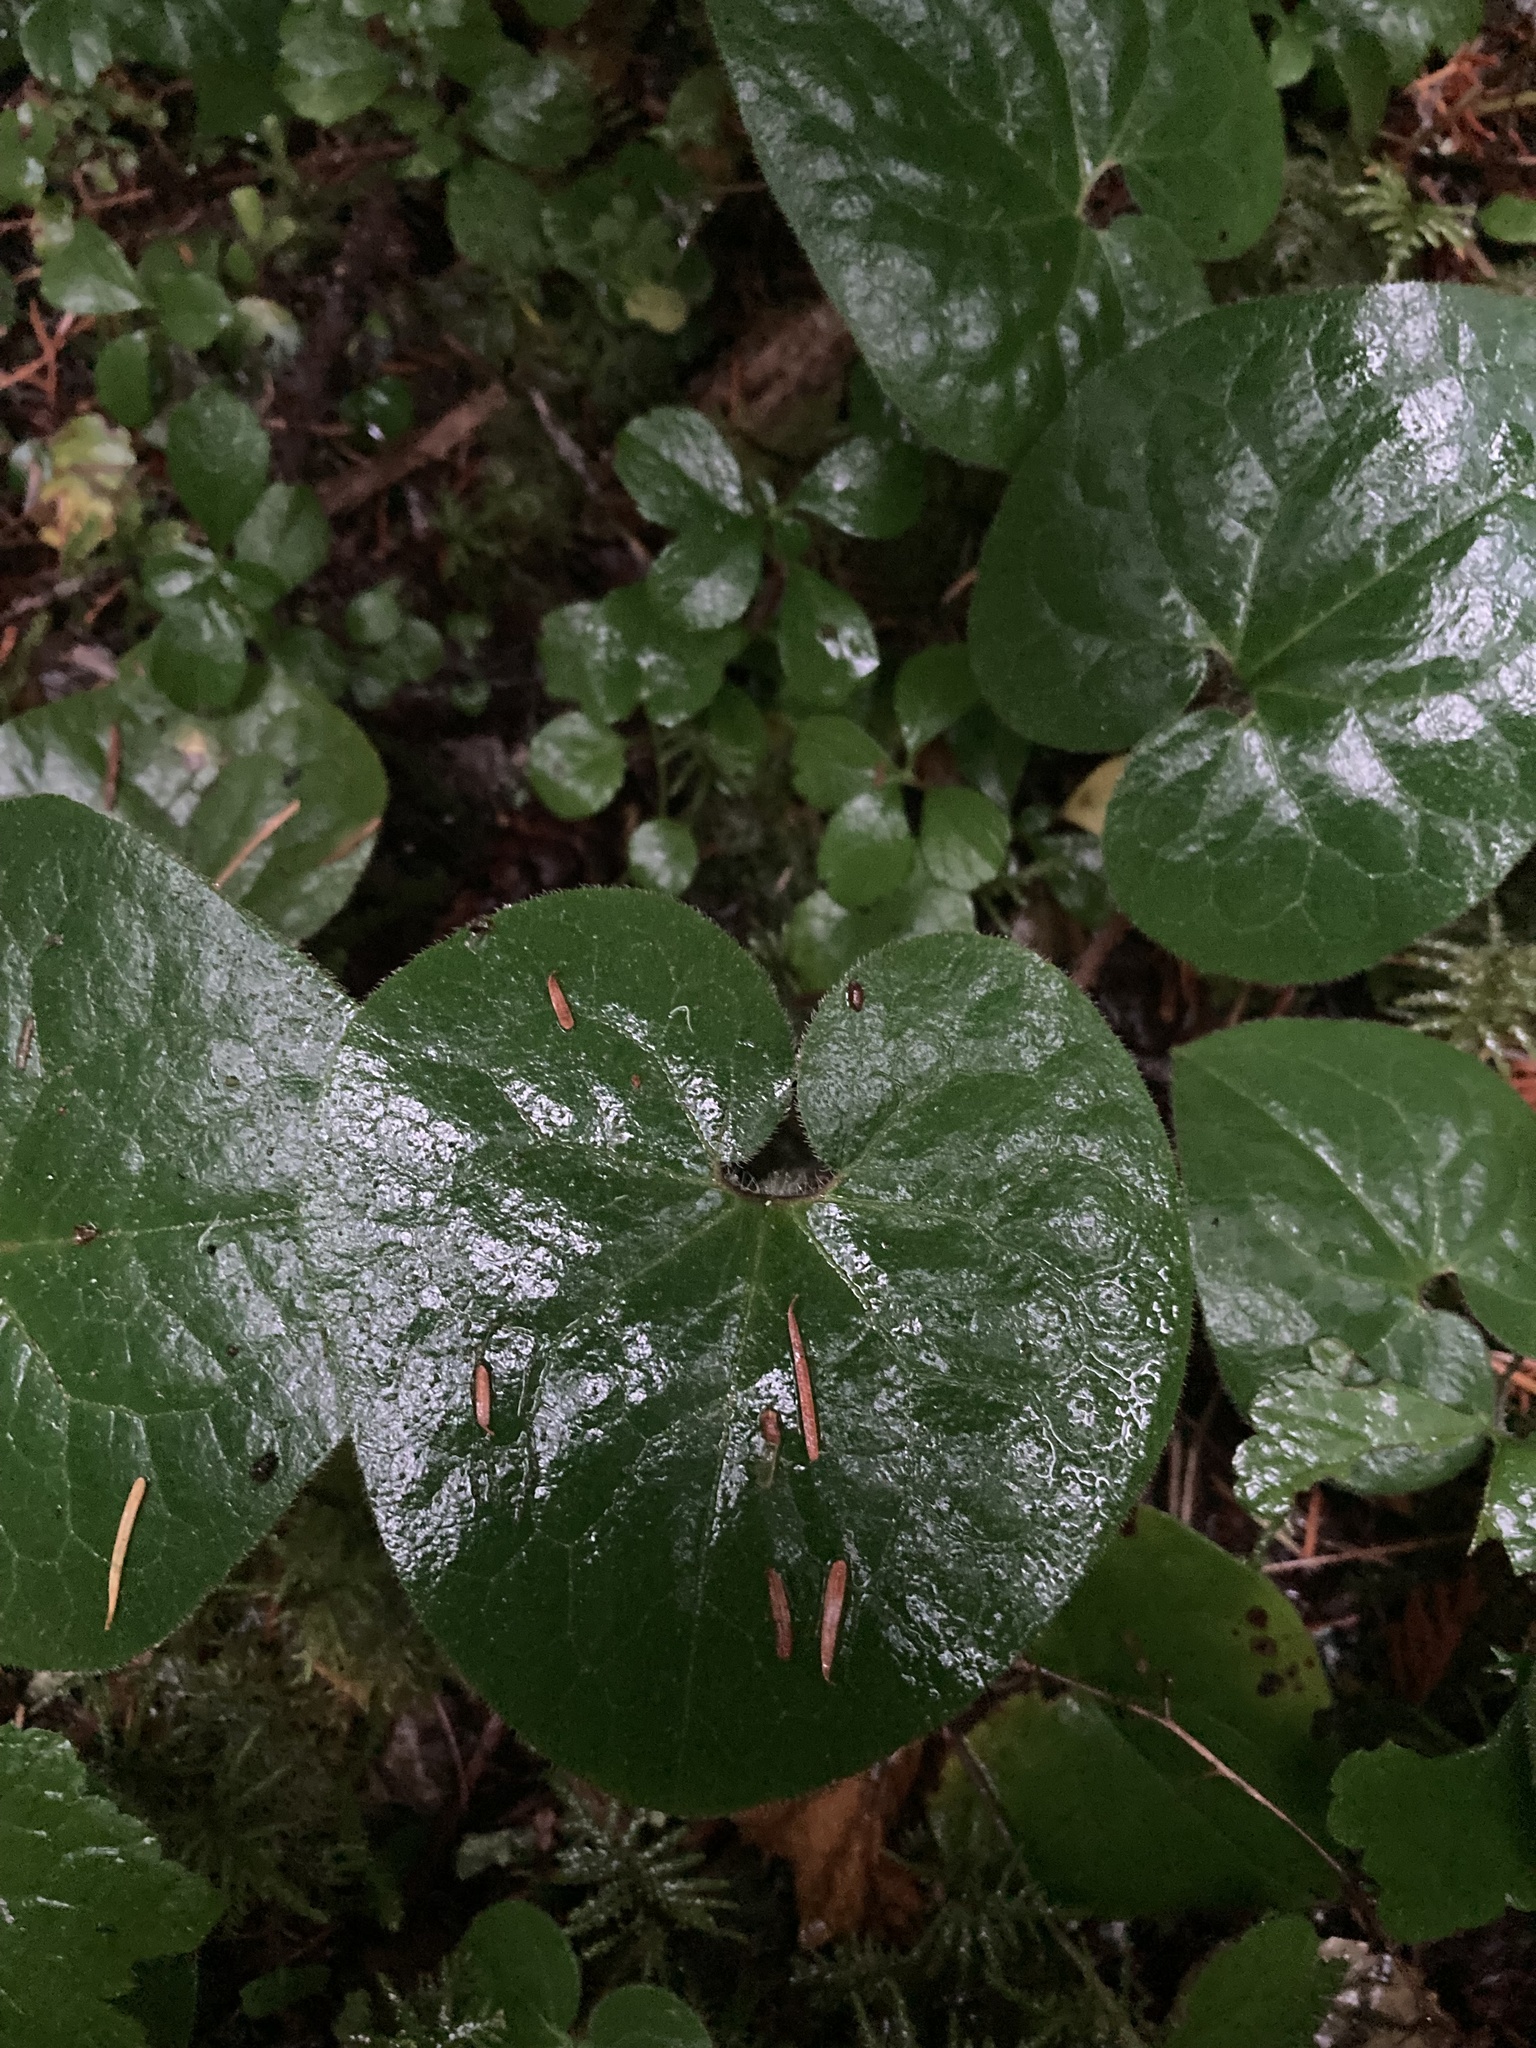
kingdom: Plantae
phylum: Tracheophyta
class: Magnoliopsida
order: Piperales
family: Aristolochiaceae
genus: Asarum
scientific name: Asarum caudatum
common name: Wild ginger
